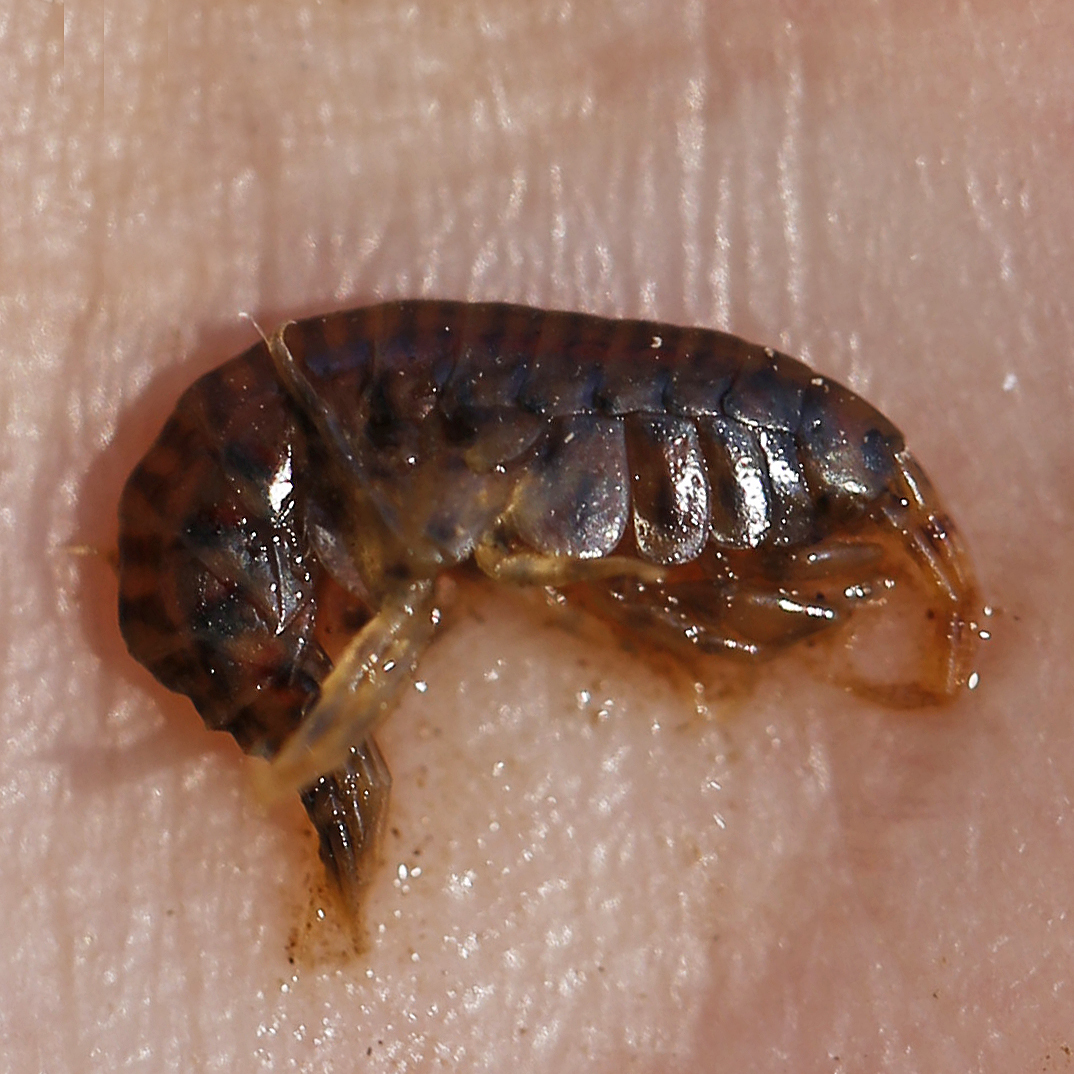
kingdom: Animalia
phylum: Arthropoda
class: Malacostraca
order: Amphipoda
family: Gammaridae
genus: Gammarus
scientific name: Gammarus fasciatus
